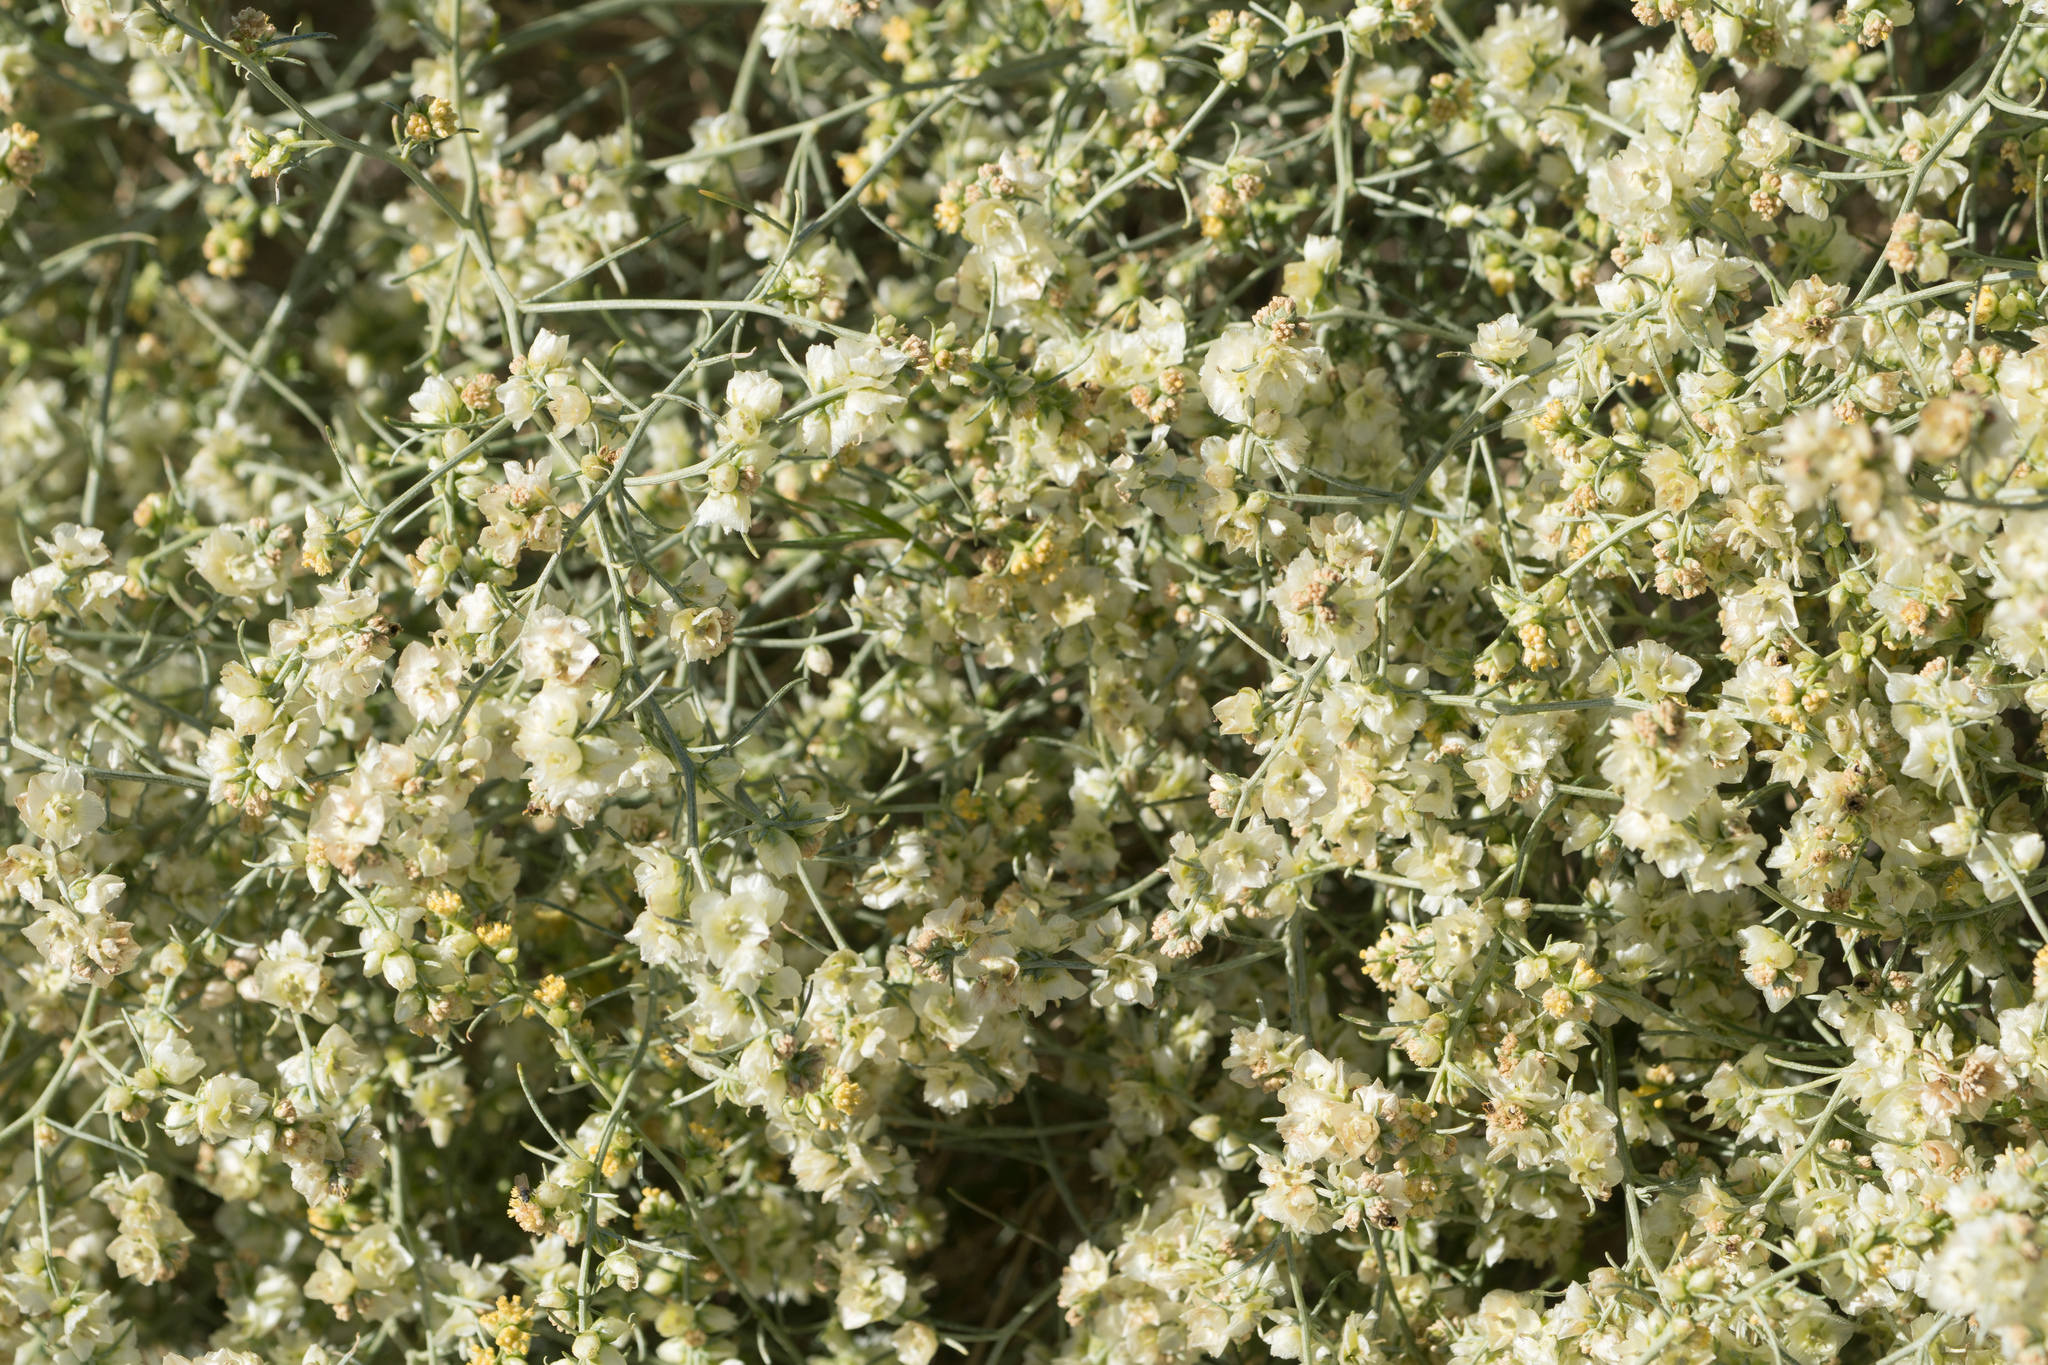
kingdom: Plantae
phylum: Tracheophyta
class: Magnoliopsida
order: Asterales
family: Asteraceae
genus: Ambrosia
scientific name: Ambrosia salsola
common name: Burrobrush
